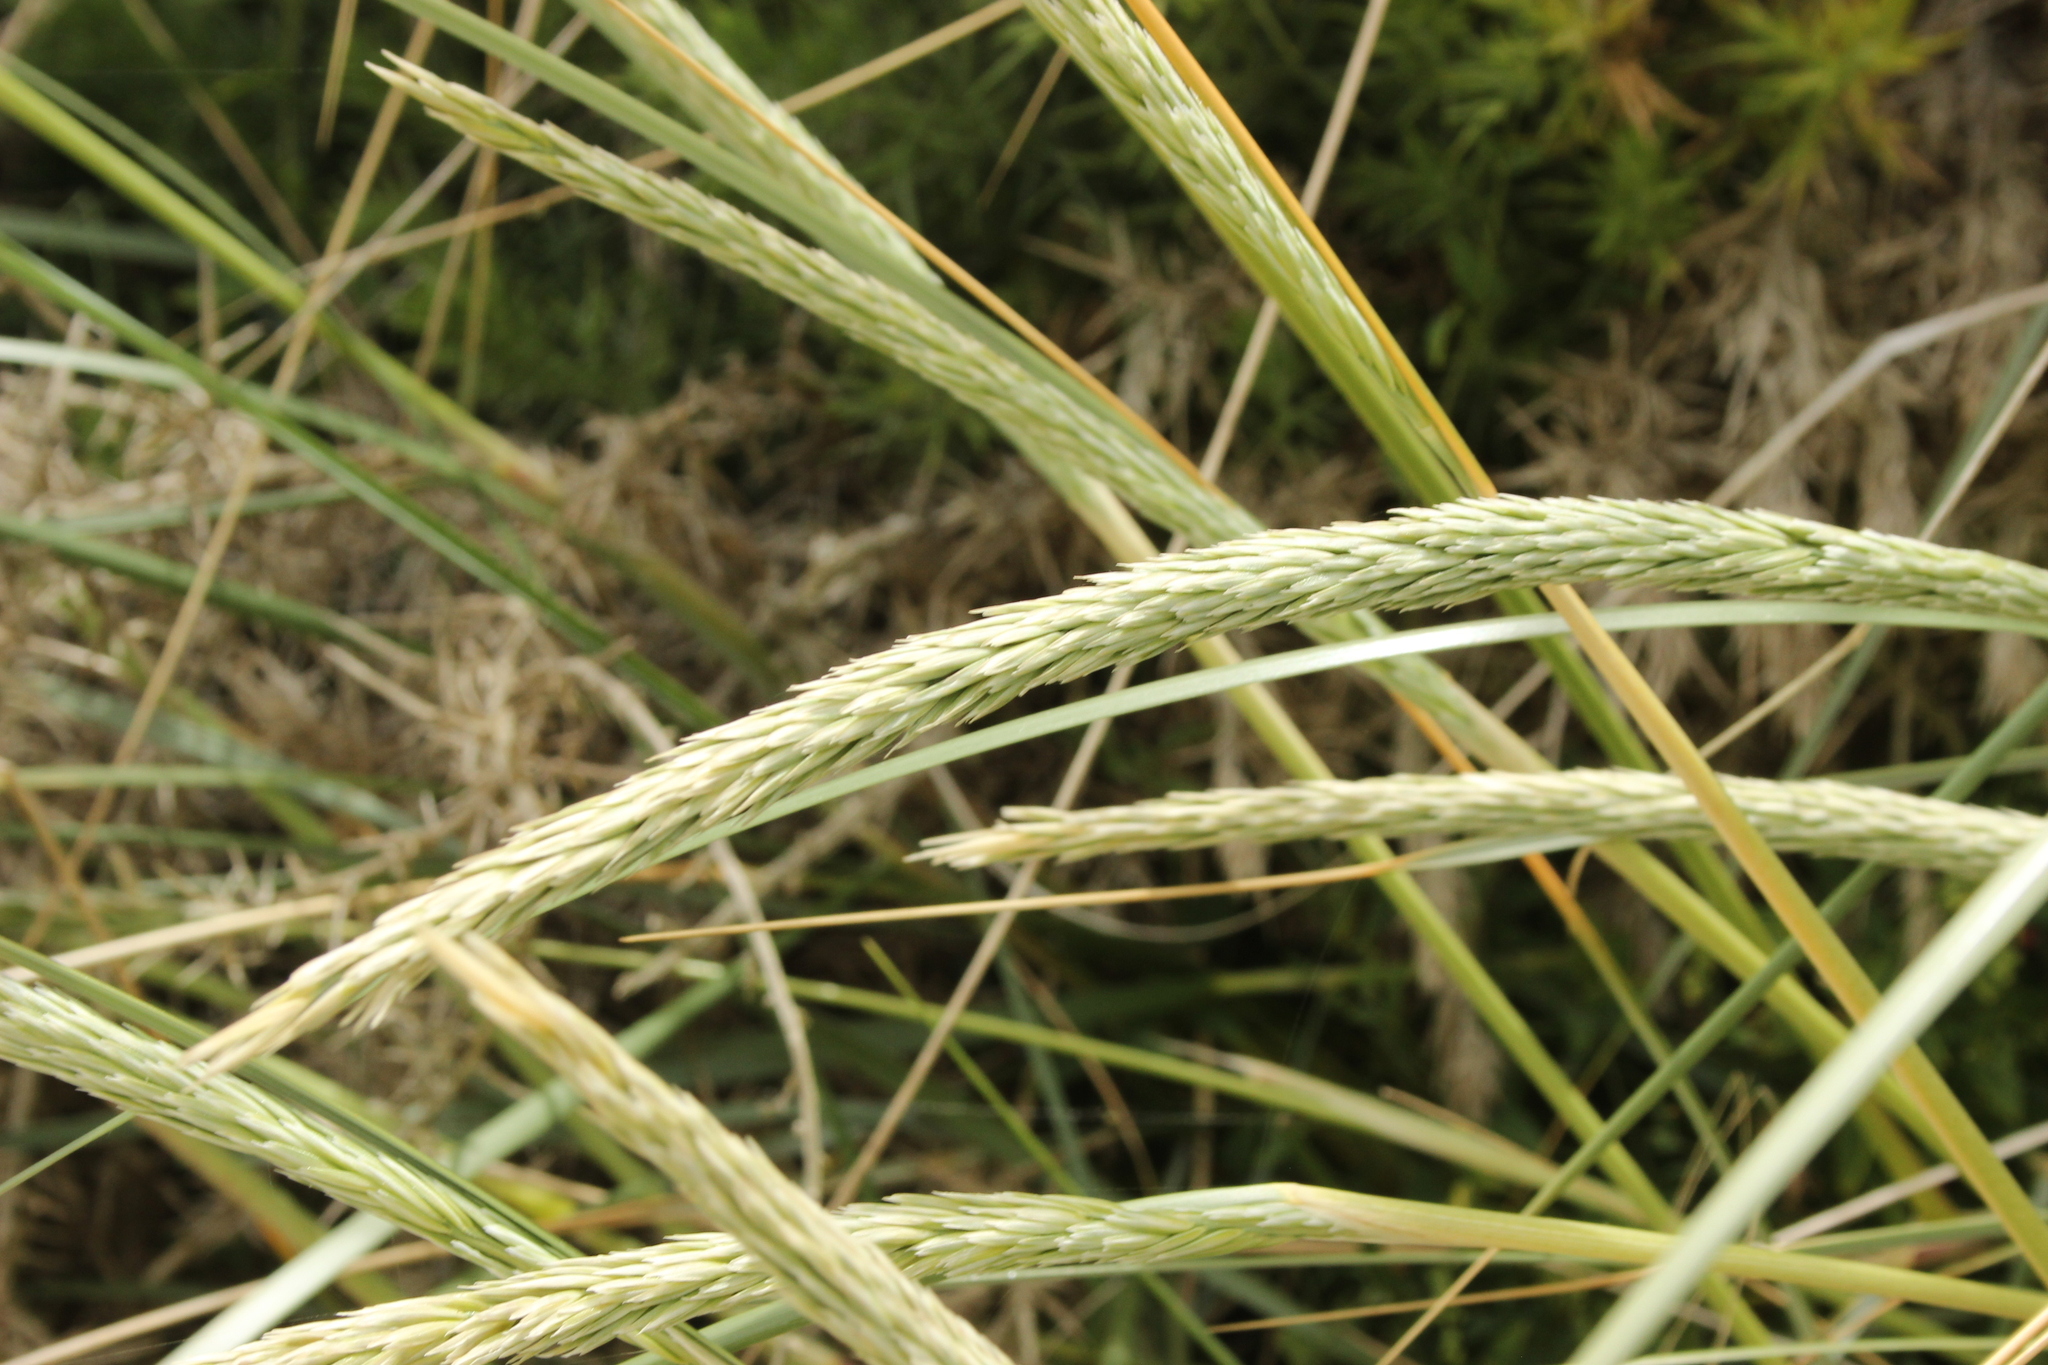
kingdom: Plantae
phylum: Tracheophyta
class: Liliopsida
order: Poales
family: Poaceae
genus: Calamagrostis
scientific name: Calamagrostis arenaria
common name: European beachgrass
